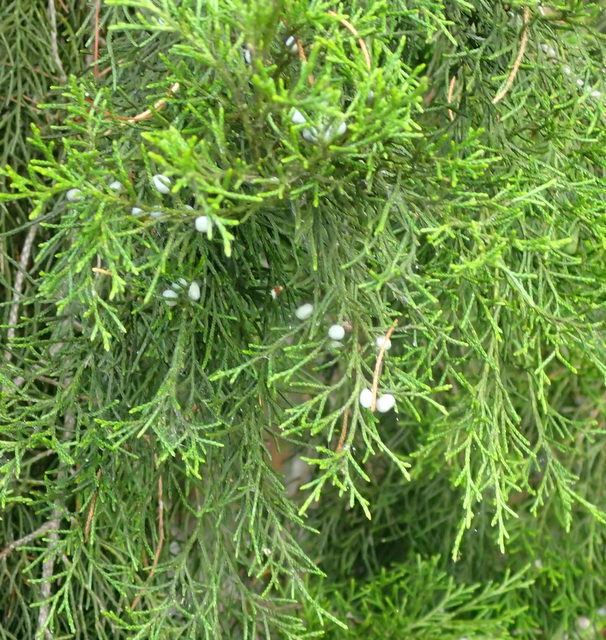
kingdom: Plantae
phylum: Tracheophyta
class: Pinopsida
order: Pinales
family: Cupressaceae
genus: Juniperus
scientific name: Juniperus virginiana
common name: Red juniper
